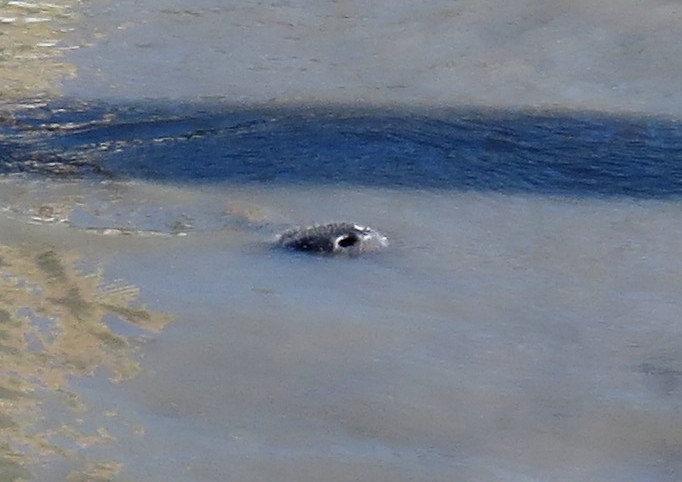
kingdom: Animalia
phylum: Chordata
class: Mammalia
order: Sirenia
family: Trichechidae
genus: Trichechus
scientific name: Trichechus manatus
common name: West indian manatee
